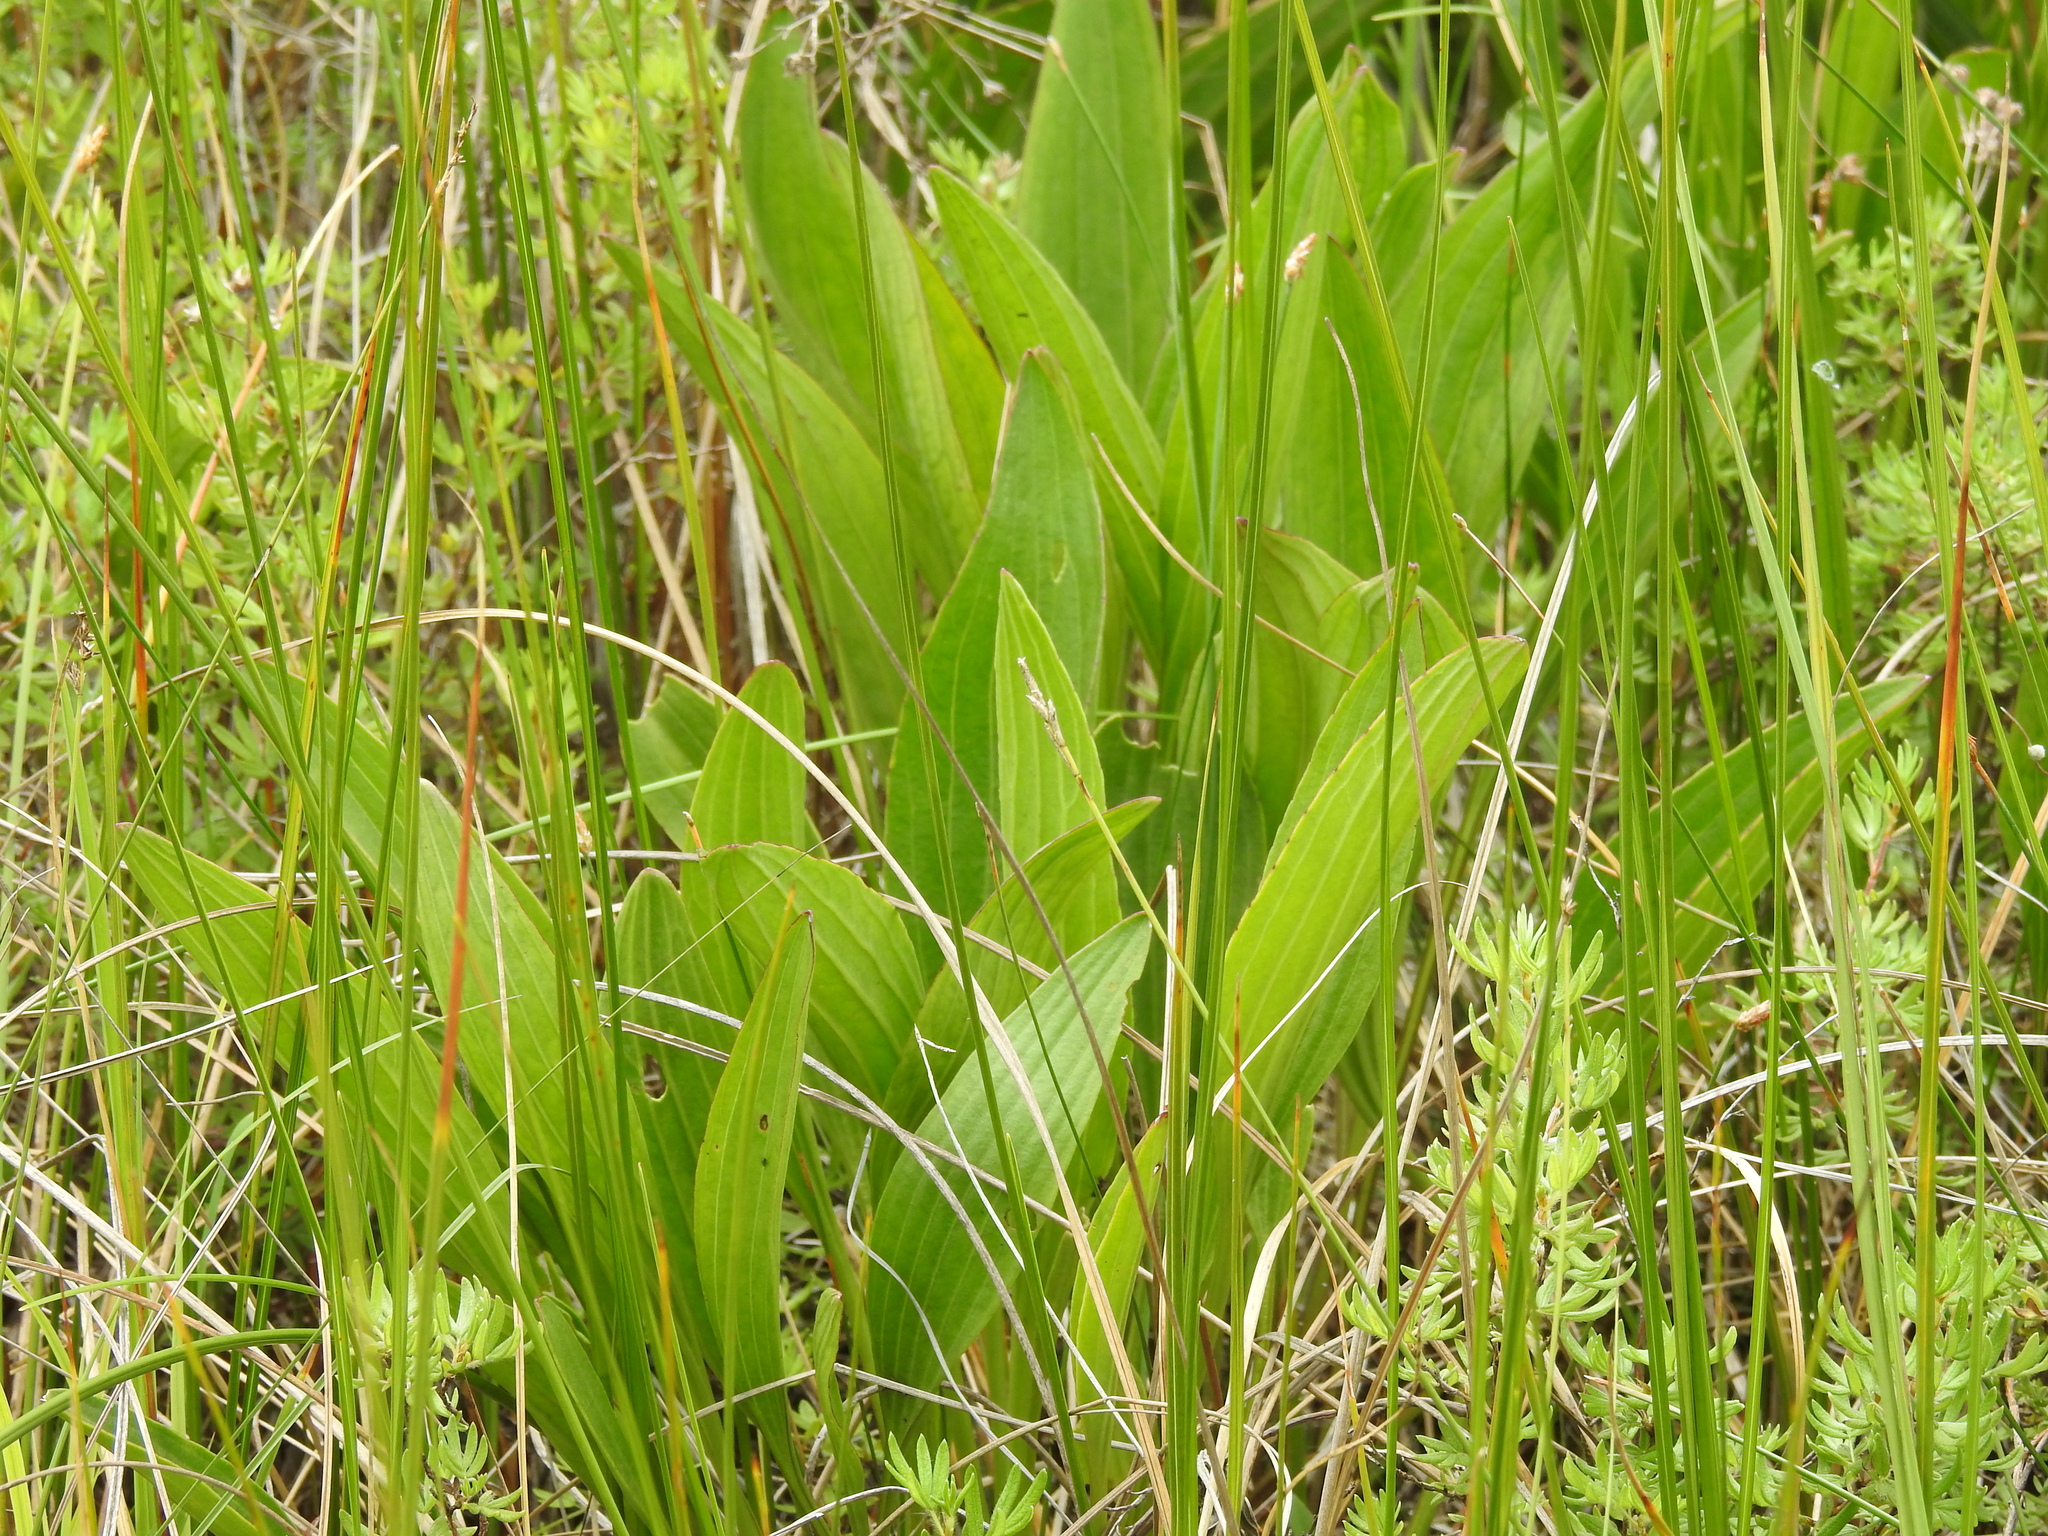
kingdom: Plantae
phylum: Tracheophyta
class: Magnoliopsida
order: Asterales
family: Asteraceae
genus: Arnoglossum
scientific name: Arnoglossum plantagineum
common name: Groove-stemmed indian-plantain
